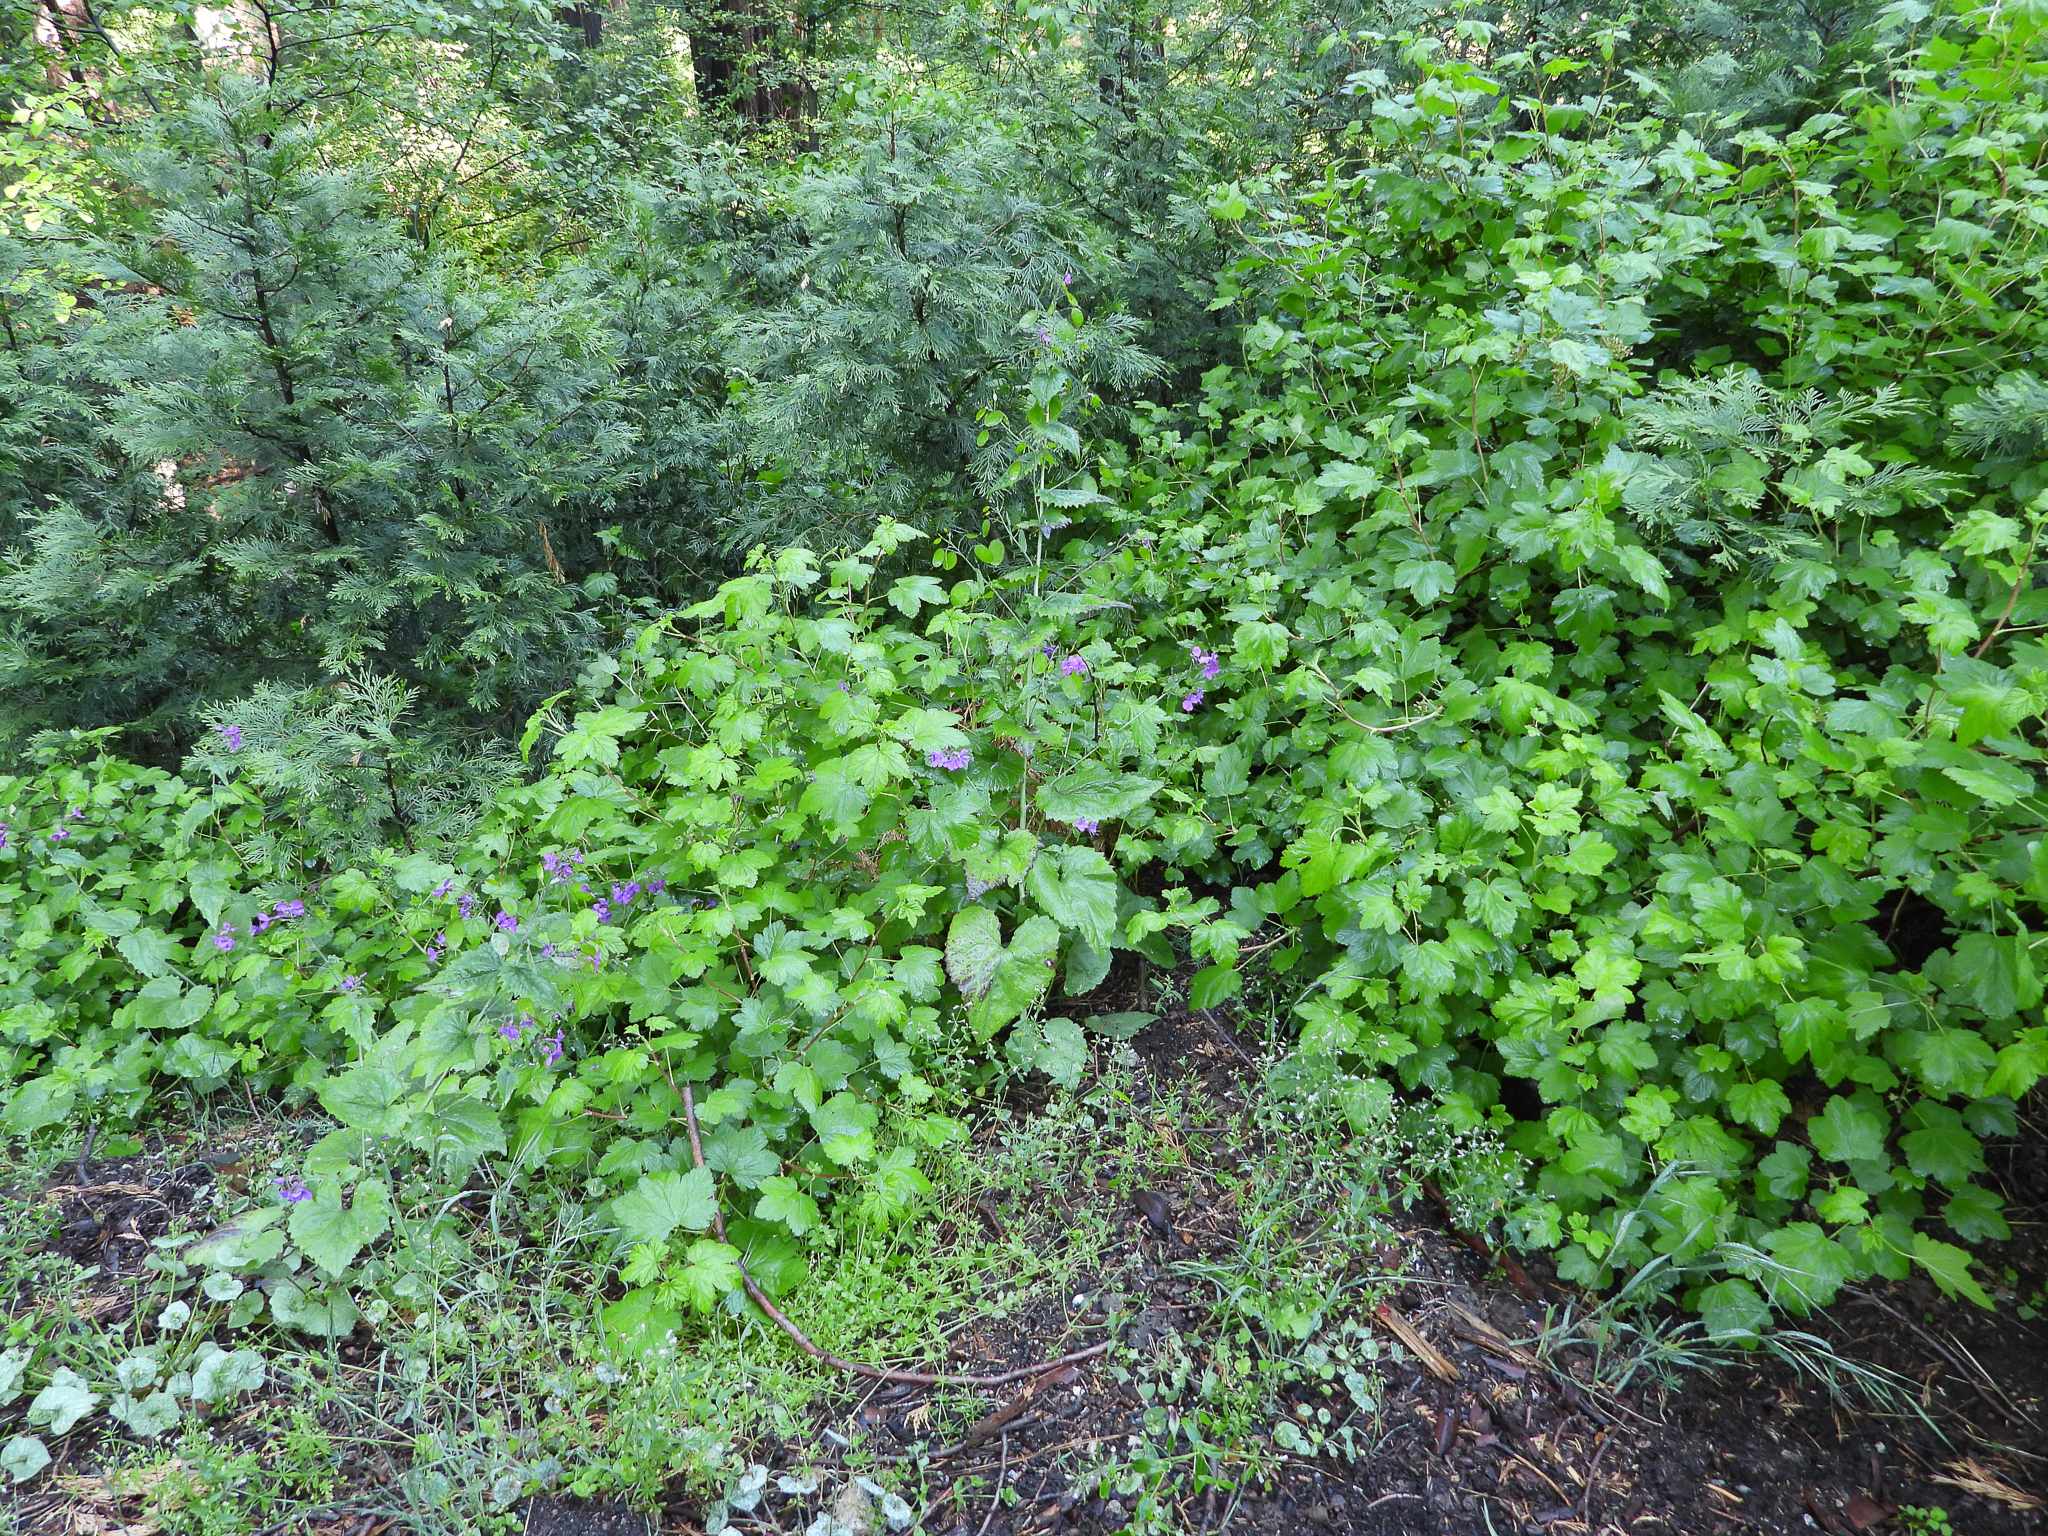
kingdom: Plantae
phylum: Tracheophyta
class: Magnoliopsida
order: Brassicales
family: Brassicaceae
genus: Lunaria
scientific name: Lunaria annua
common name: Honesty
